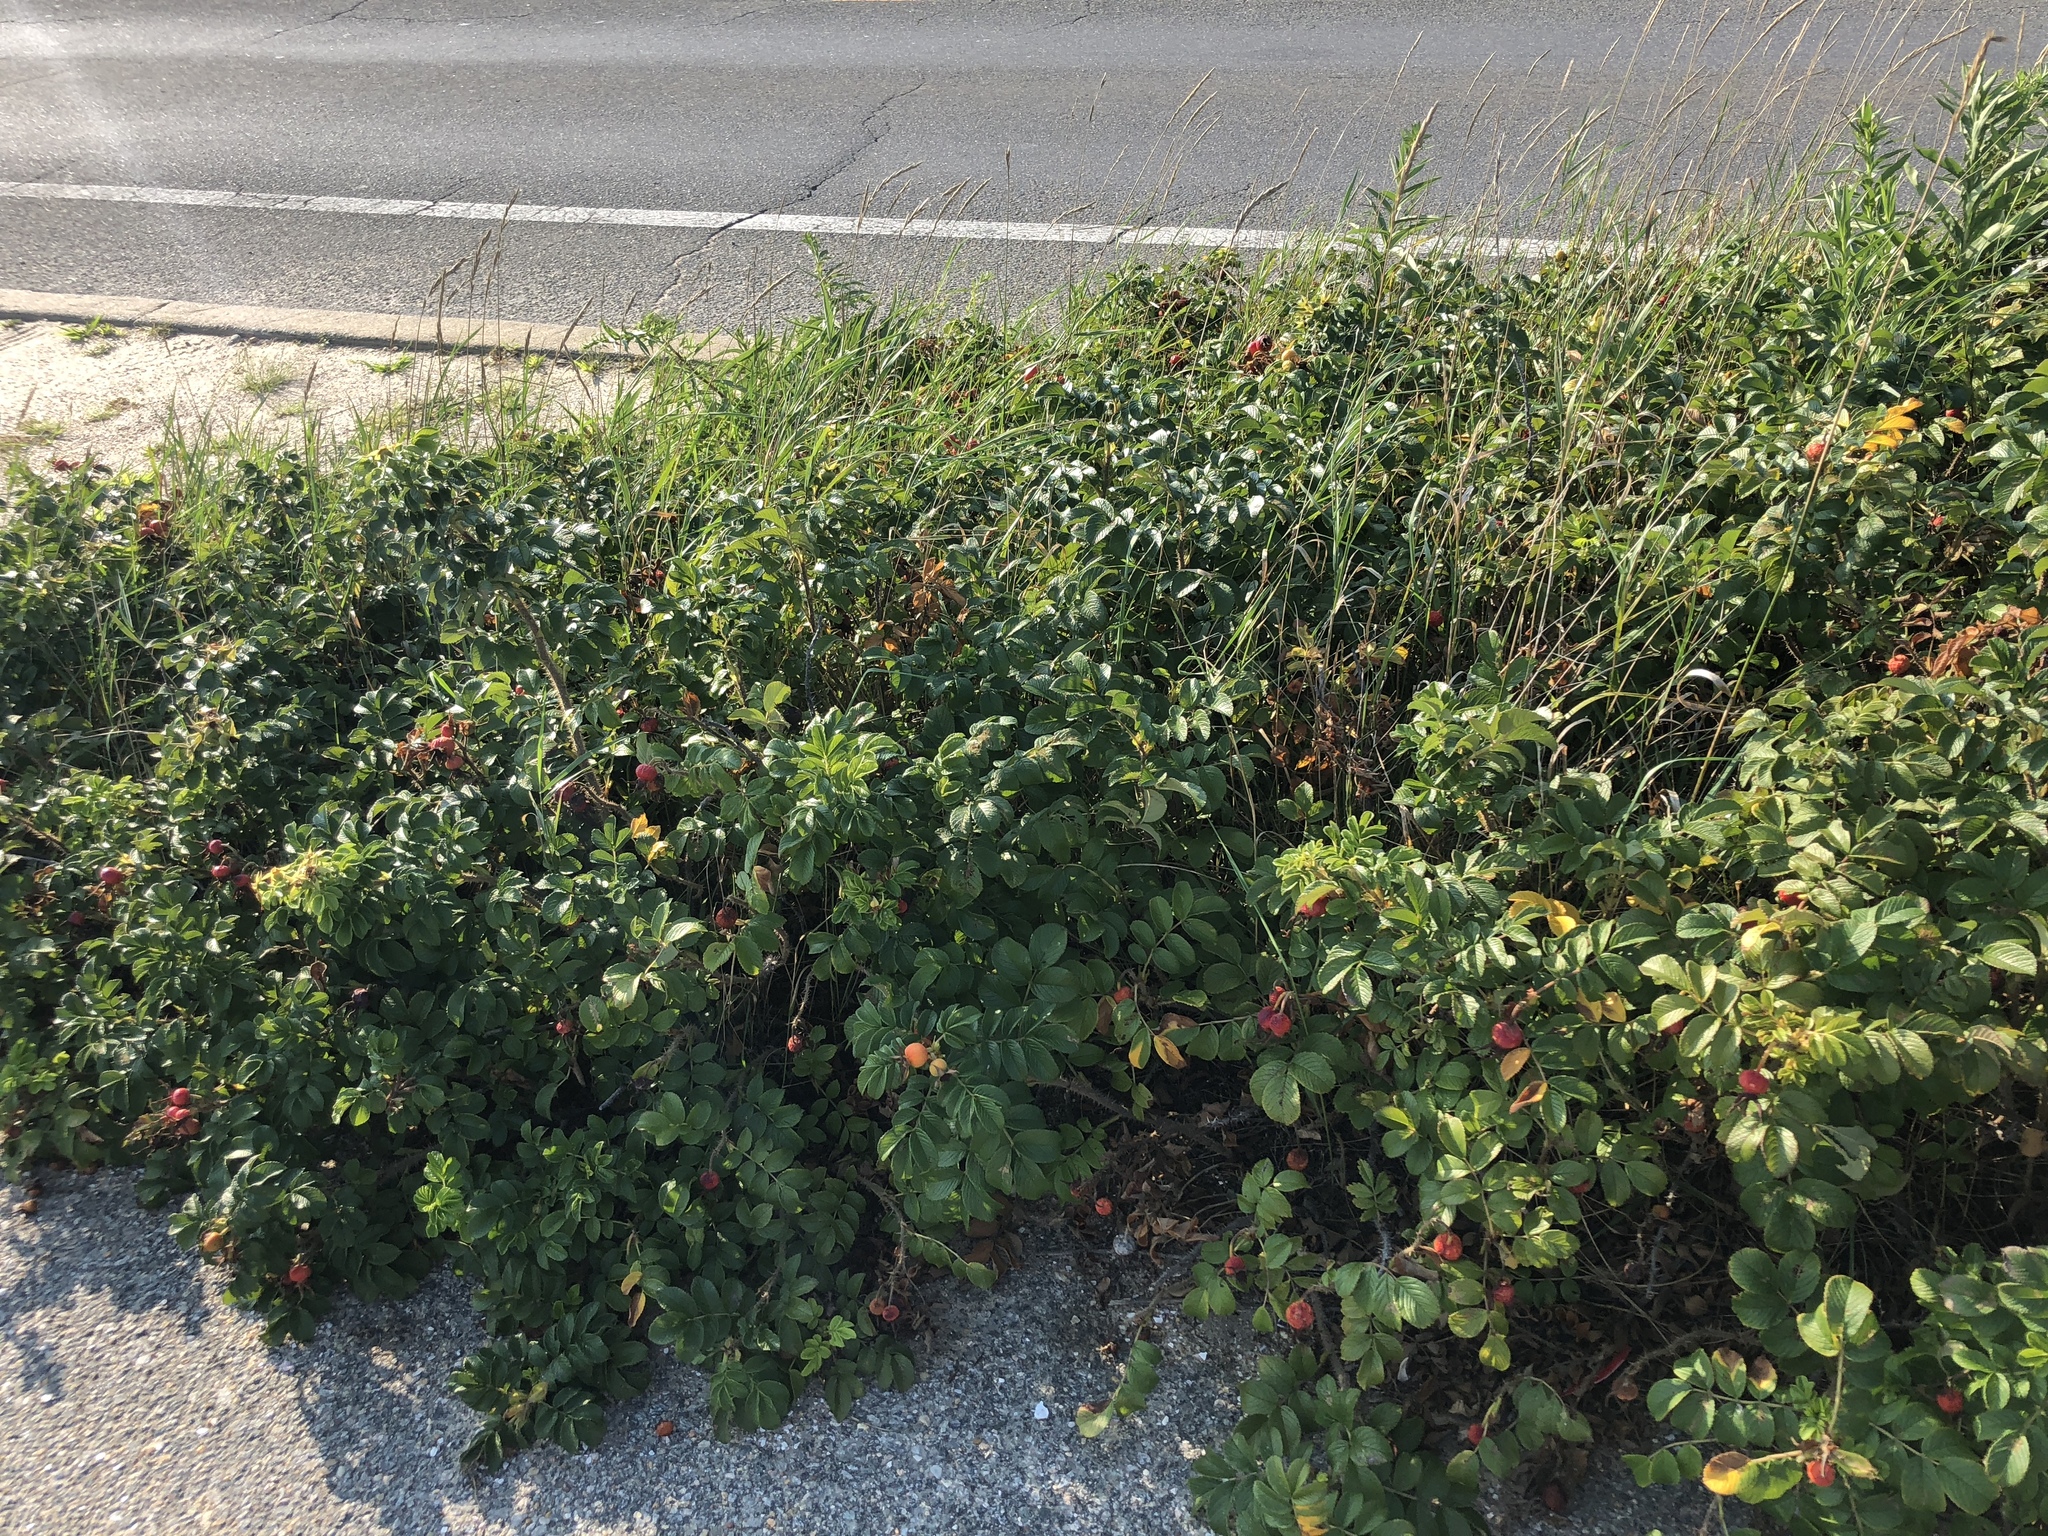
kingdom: Plantae
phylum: Tracheophyta
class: Magnoliopsida
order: Rosales
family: Rosaceae
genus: Rosa
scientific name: Rosa rugosa
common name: Japanese rose
